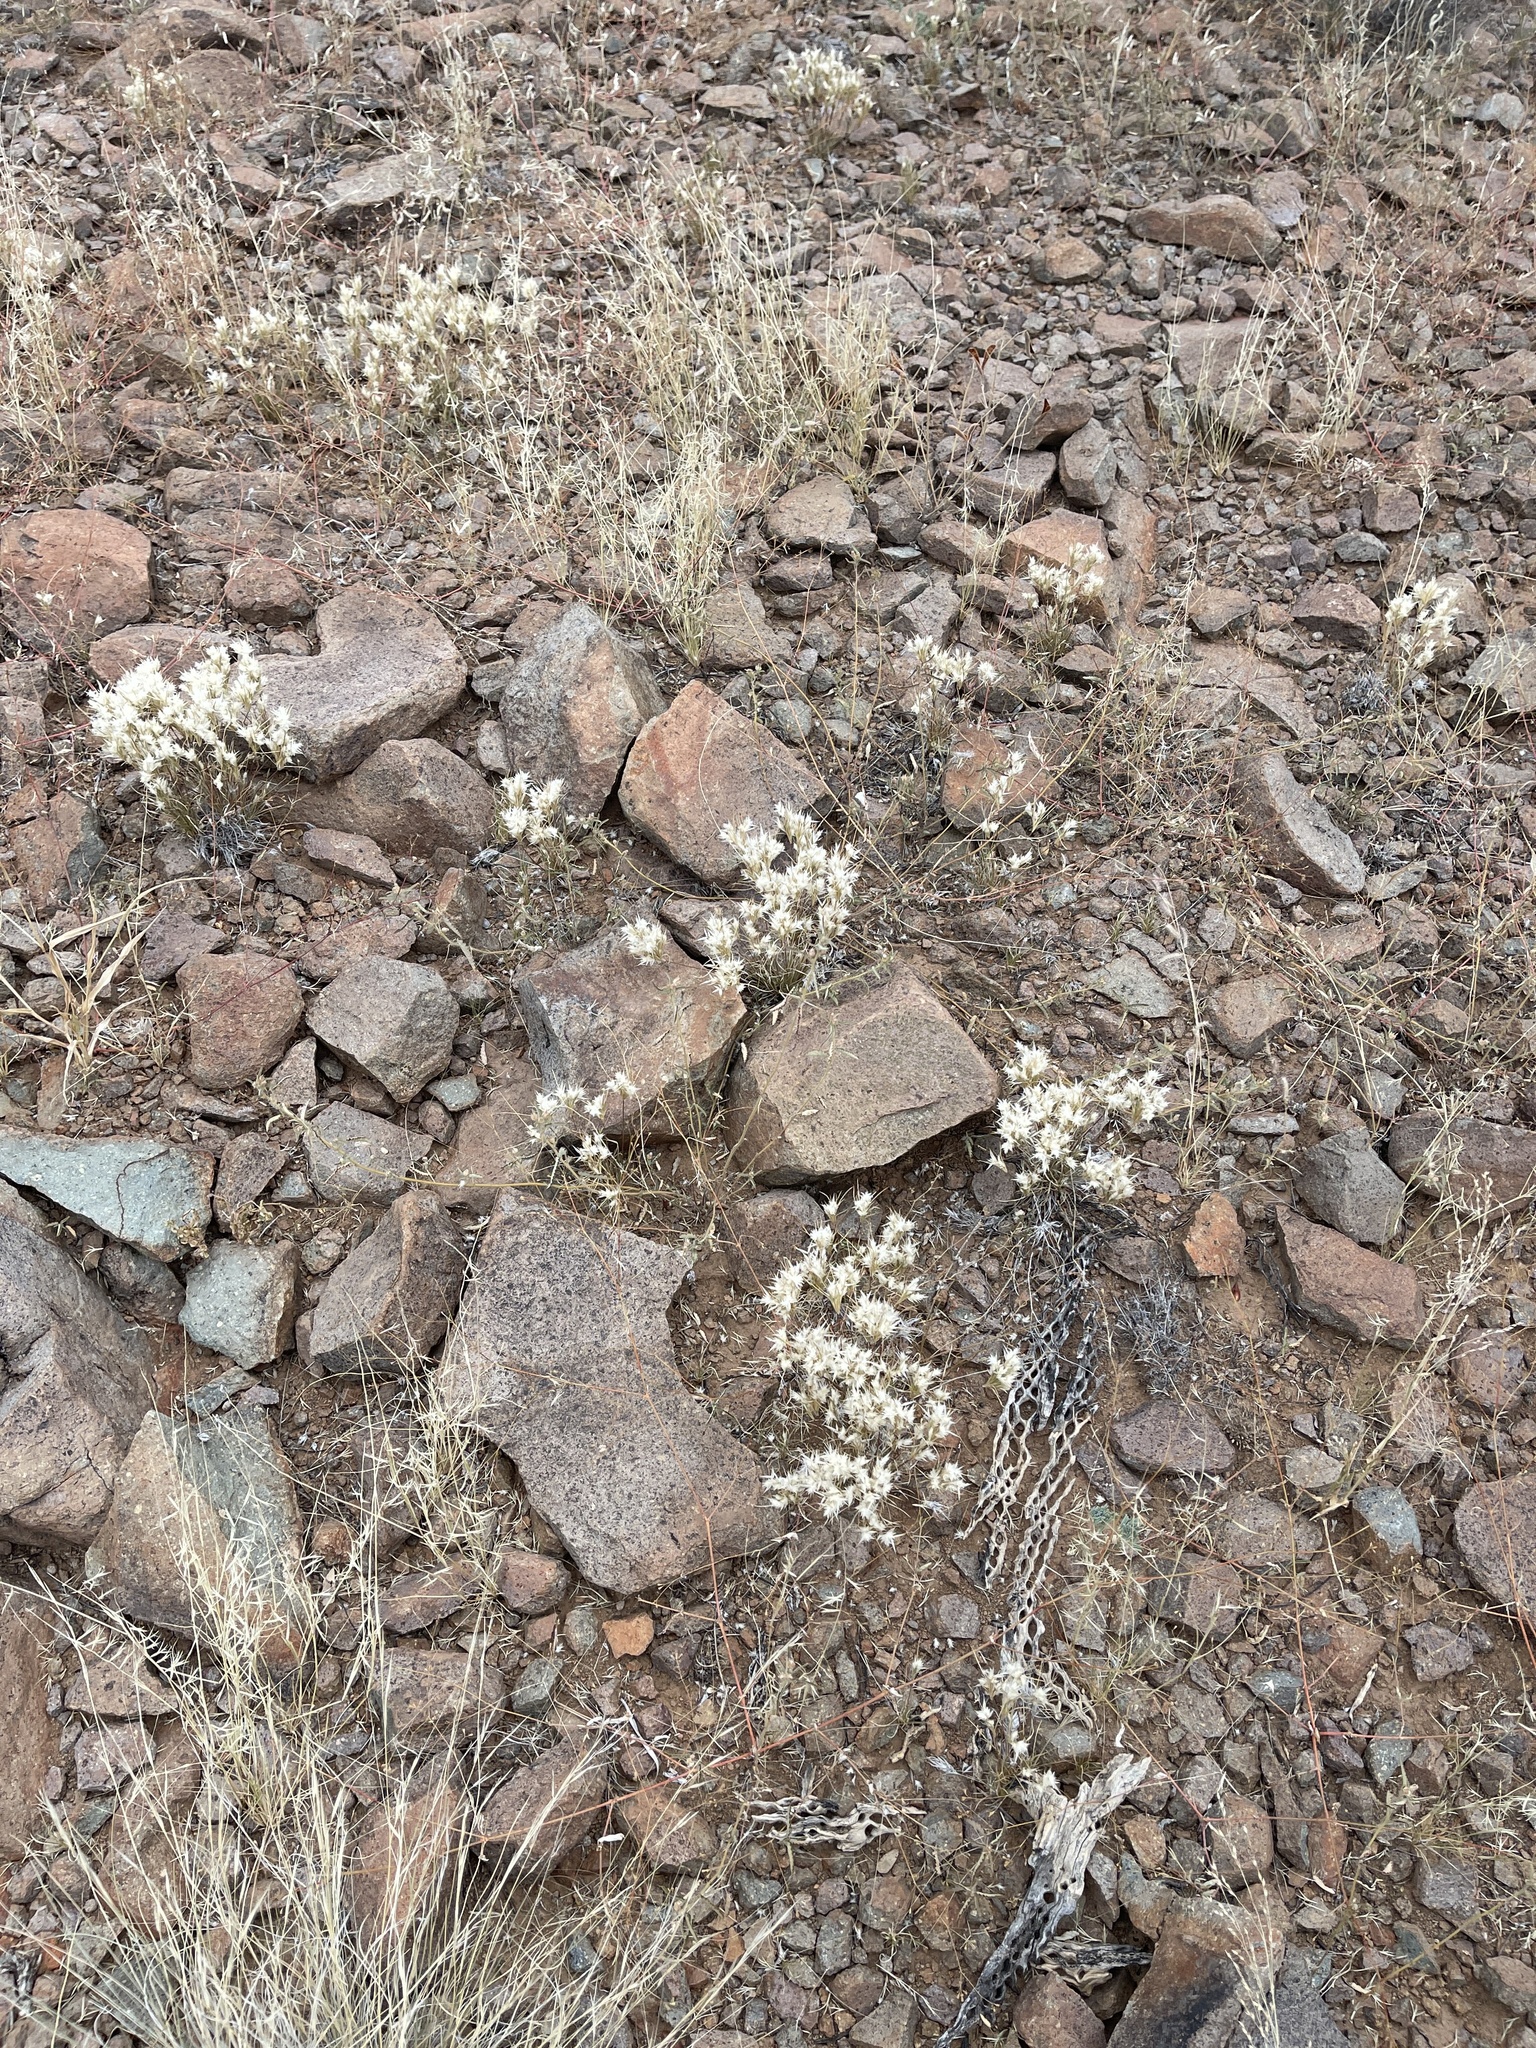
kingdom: Plantae
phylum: Tracheophyta
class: Liliopsida
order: Poales
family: Poaceae
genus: Dasyochloa
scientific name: Dasyochloa pulchella
